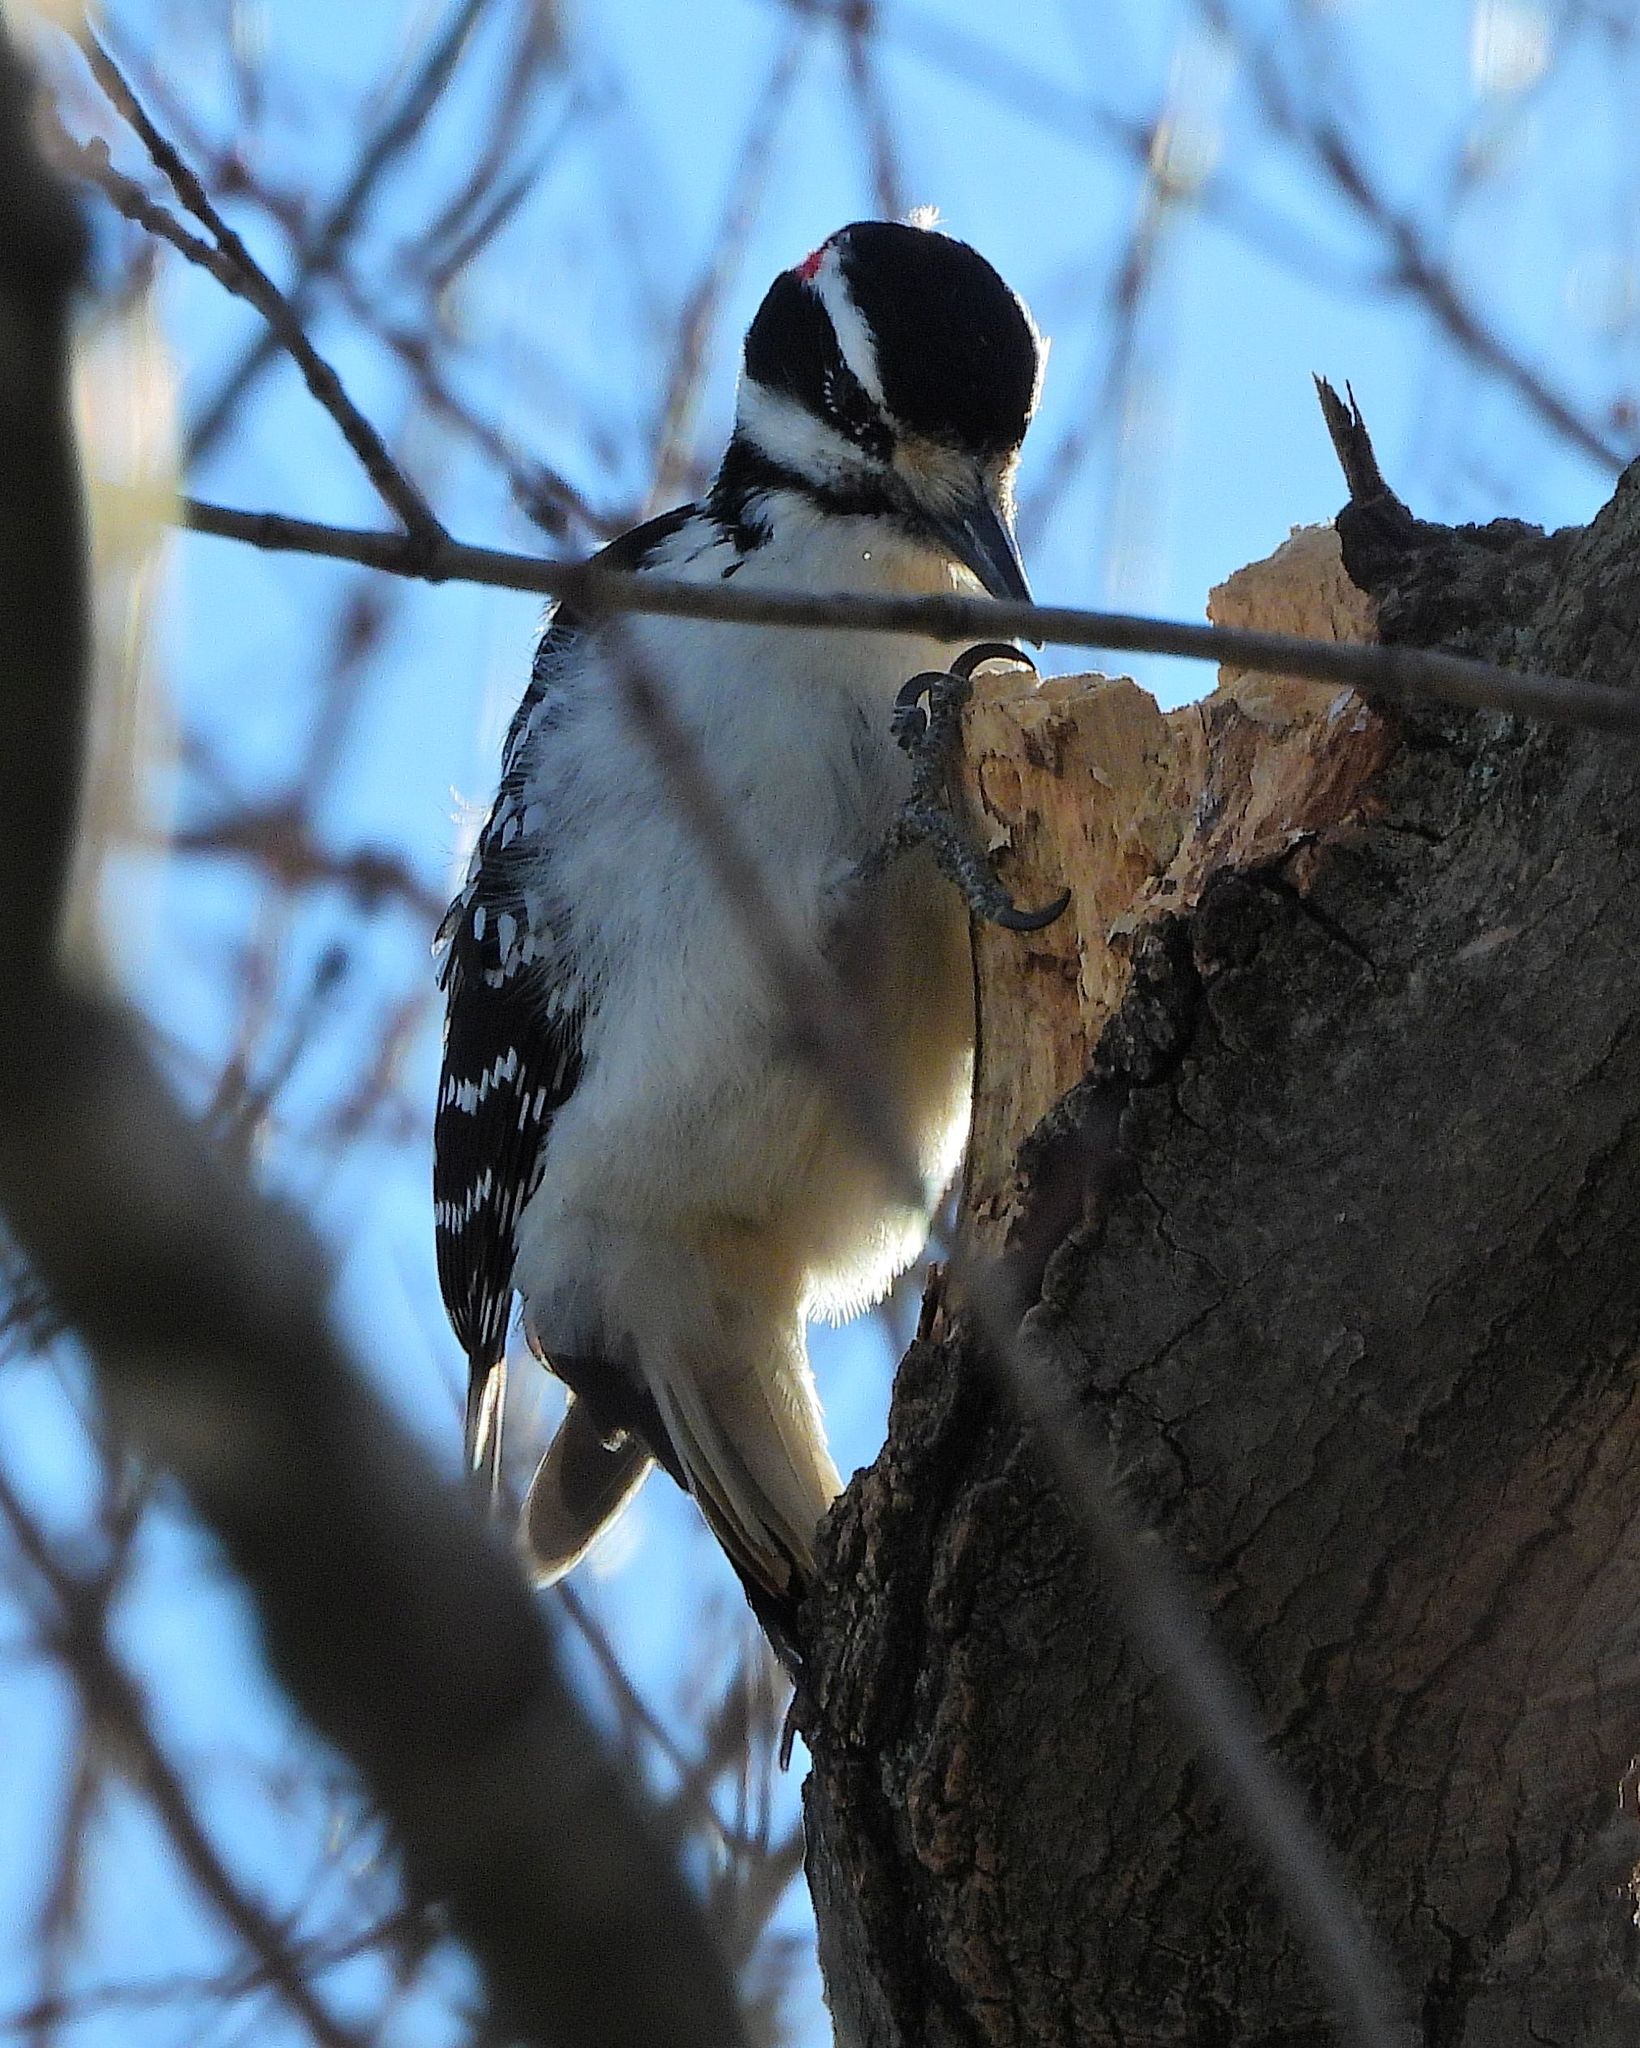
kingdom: Animalia
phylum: Chordata
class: Aves
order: Piciformes
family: Picidae
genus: Leuconotopicus
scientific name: Leuconotopicus villosus
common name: Hairy woodpecker
